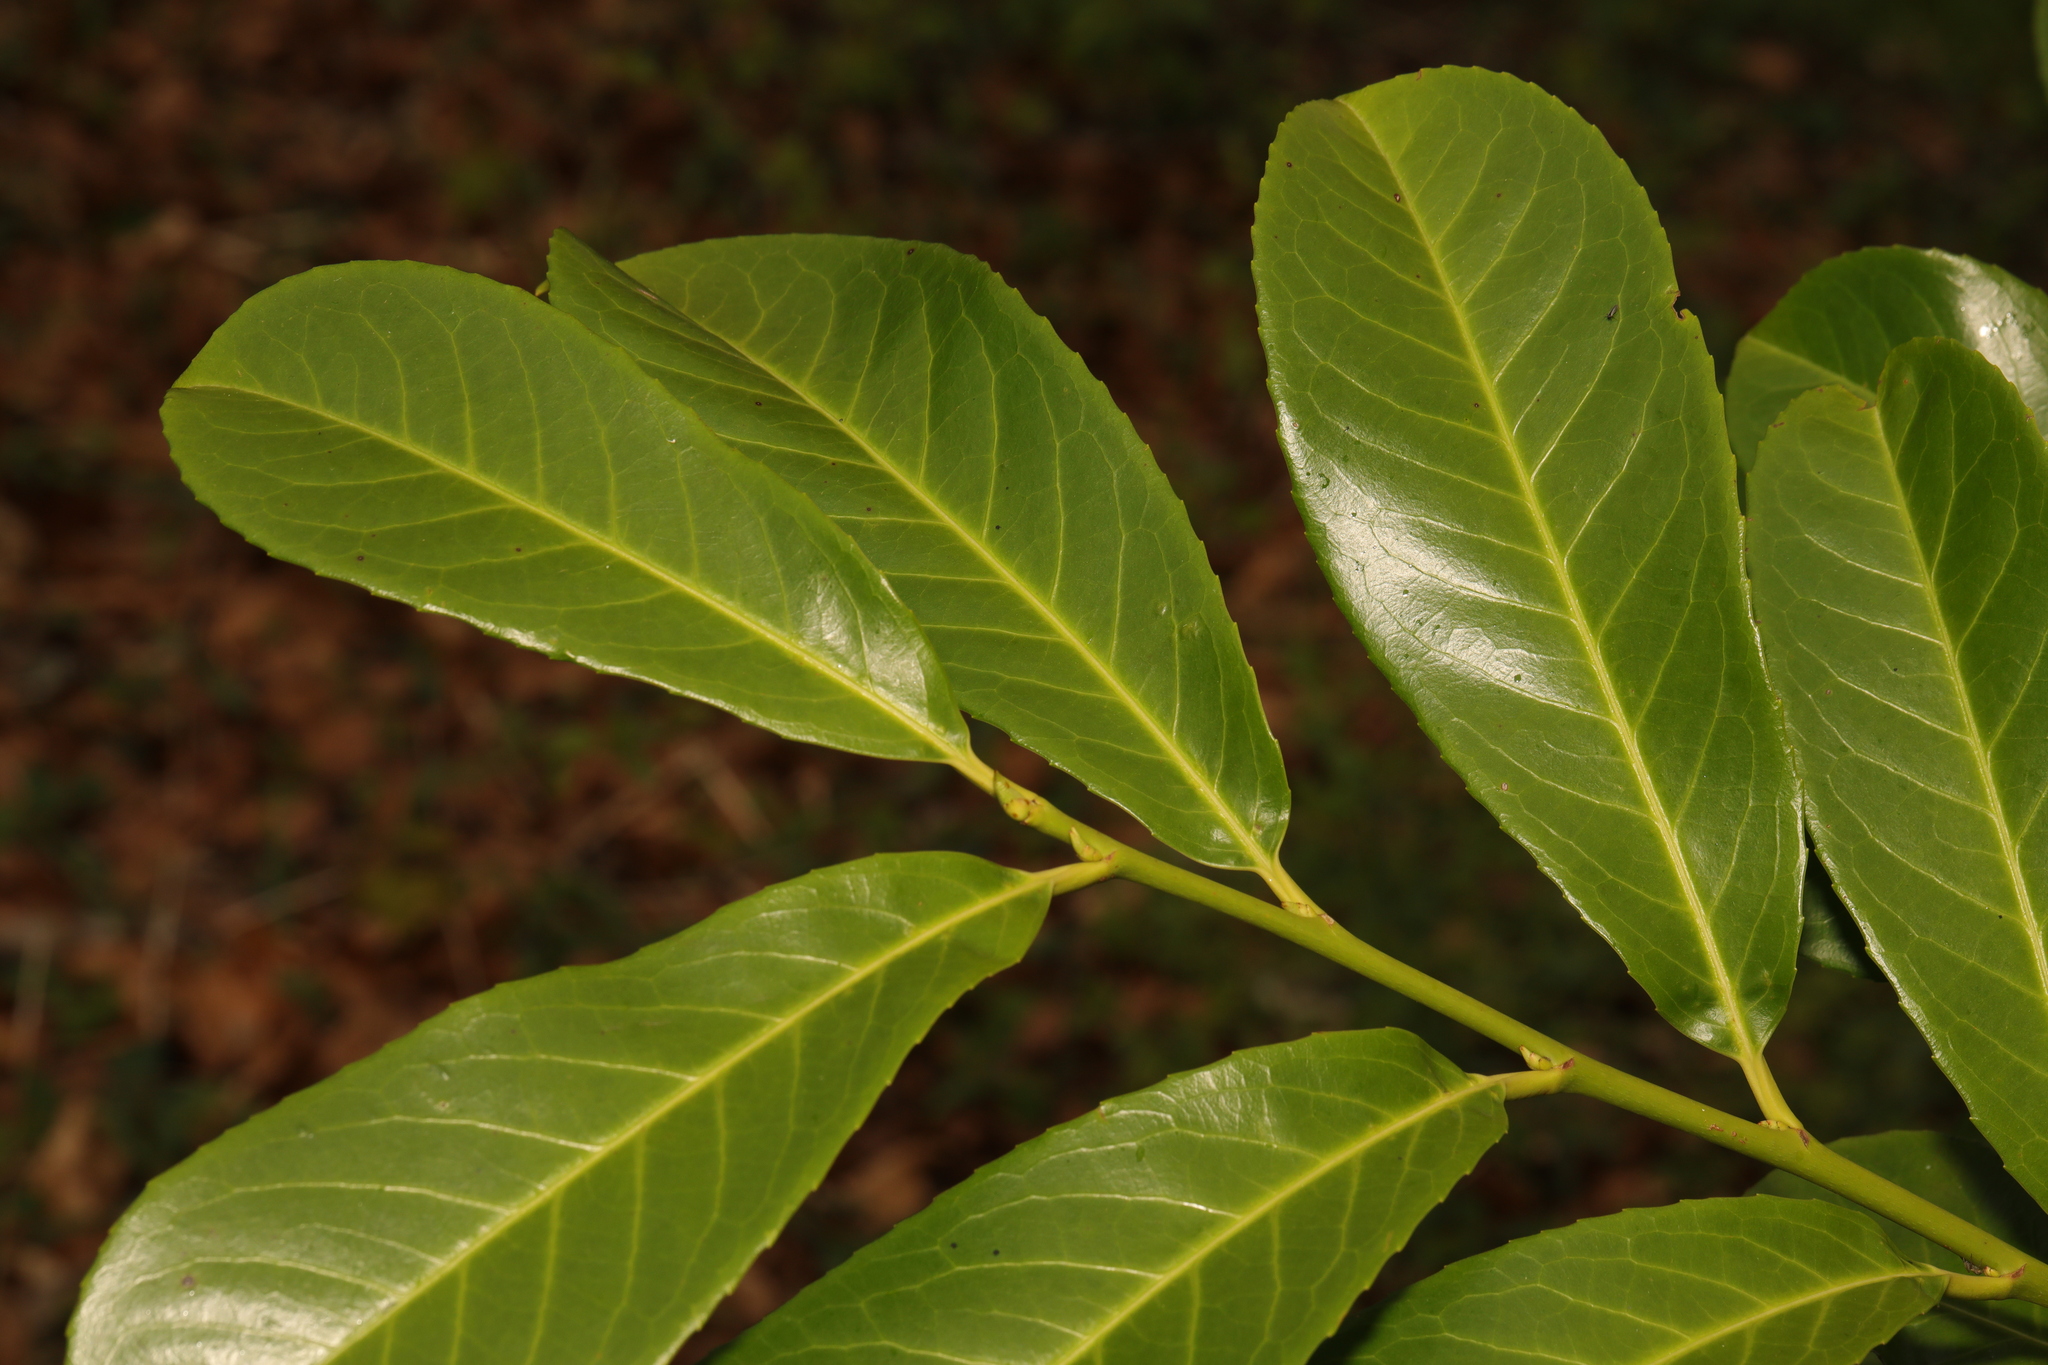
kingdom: Plantae
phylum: Tracheophyta
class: Magnoliopsida
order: Rosales
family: Rosaceae
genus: Prunus
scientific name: Prunus laurocerasus
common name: Cherry laurel
